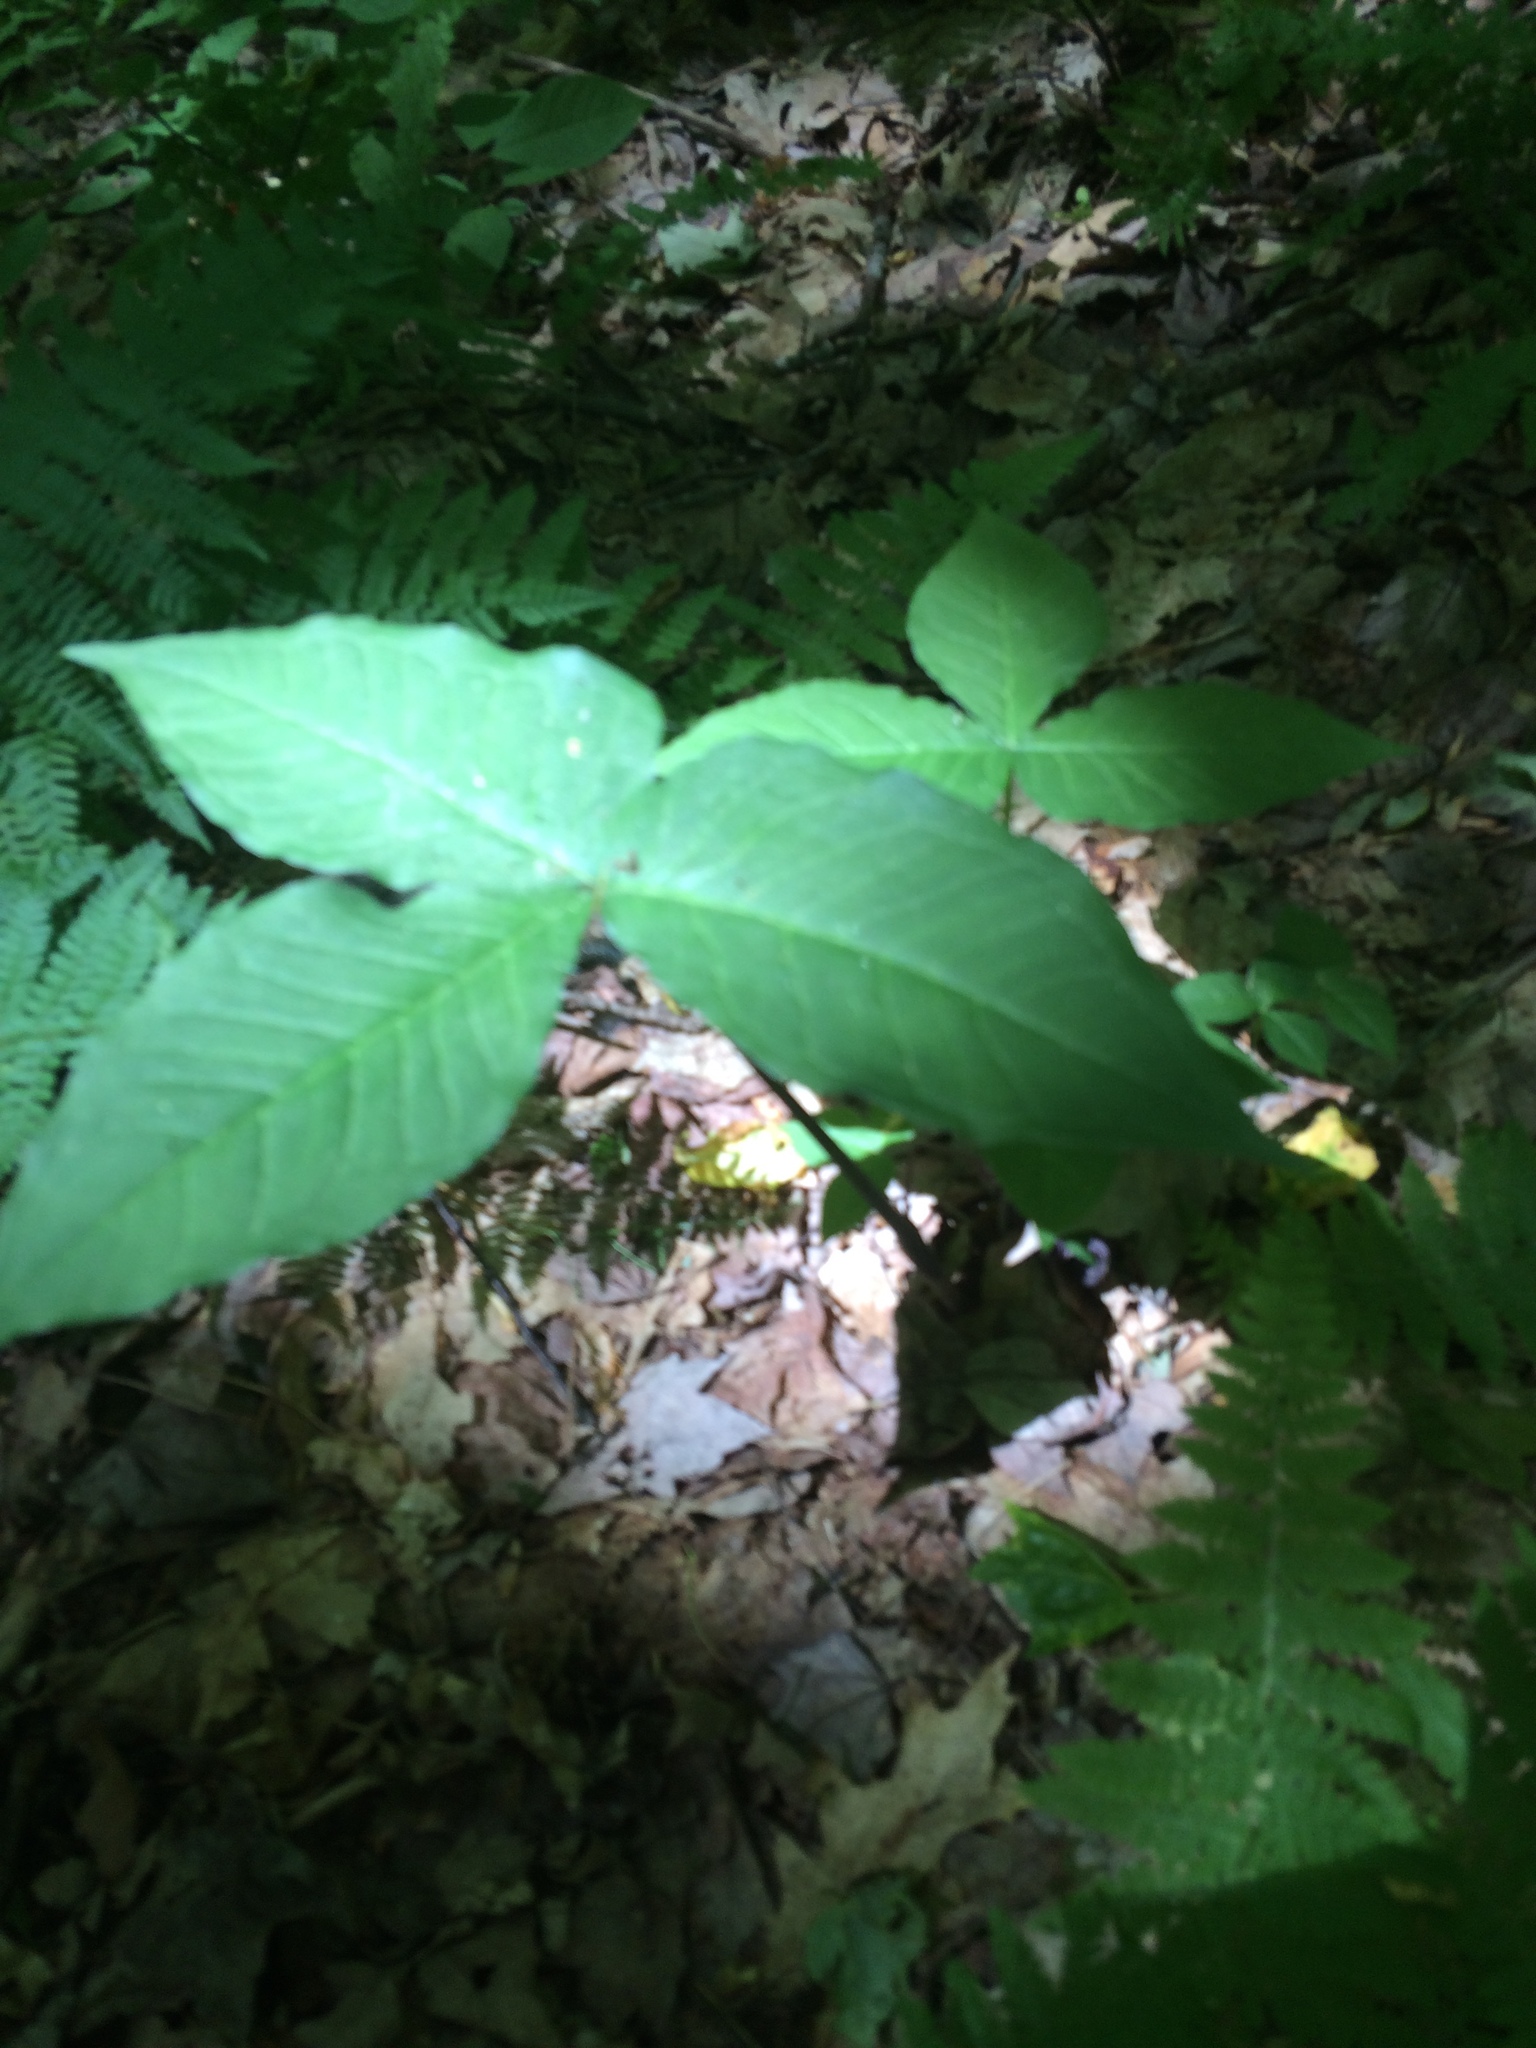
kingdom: Plantae
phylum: Tracheophyta
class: Liliopsida
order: Alismatales
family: Araceae
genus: Arisaema
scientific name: Arisaema triphyllum
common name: Jack-in-the-pulpit
